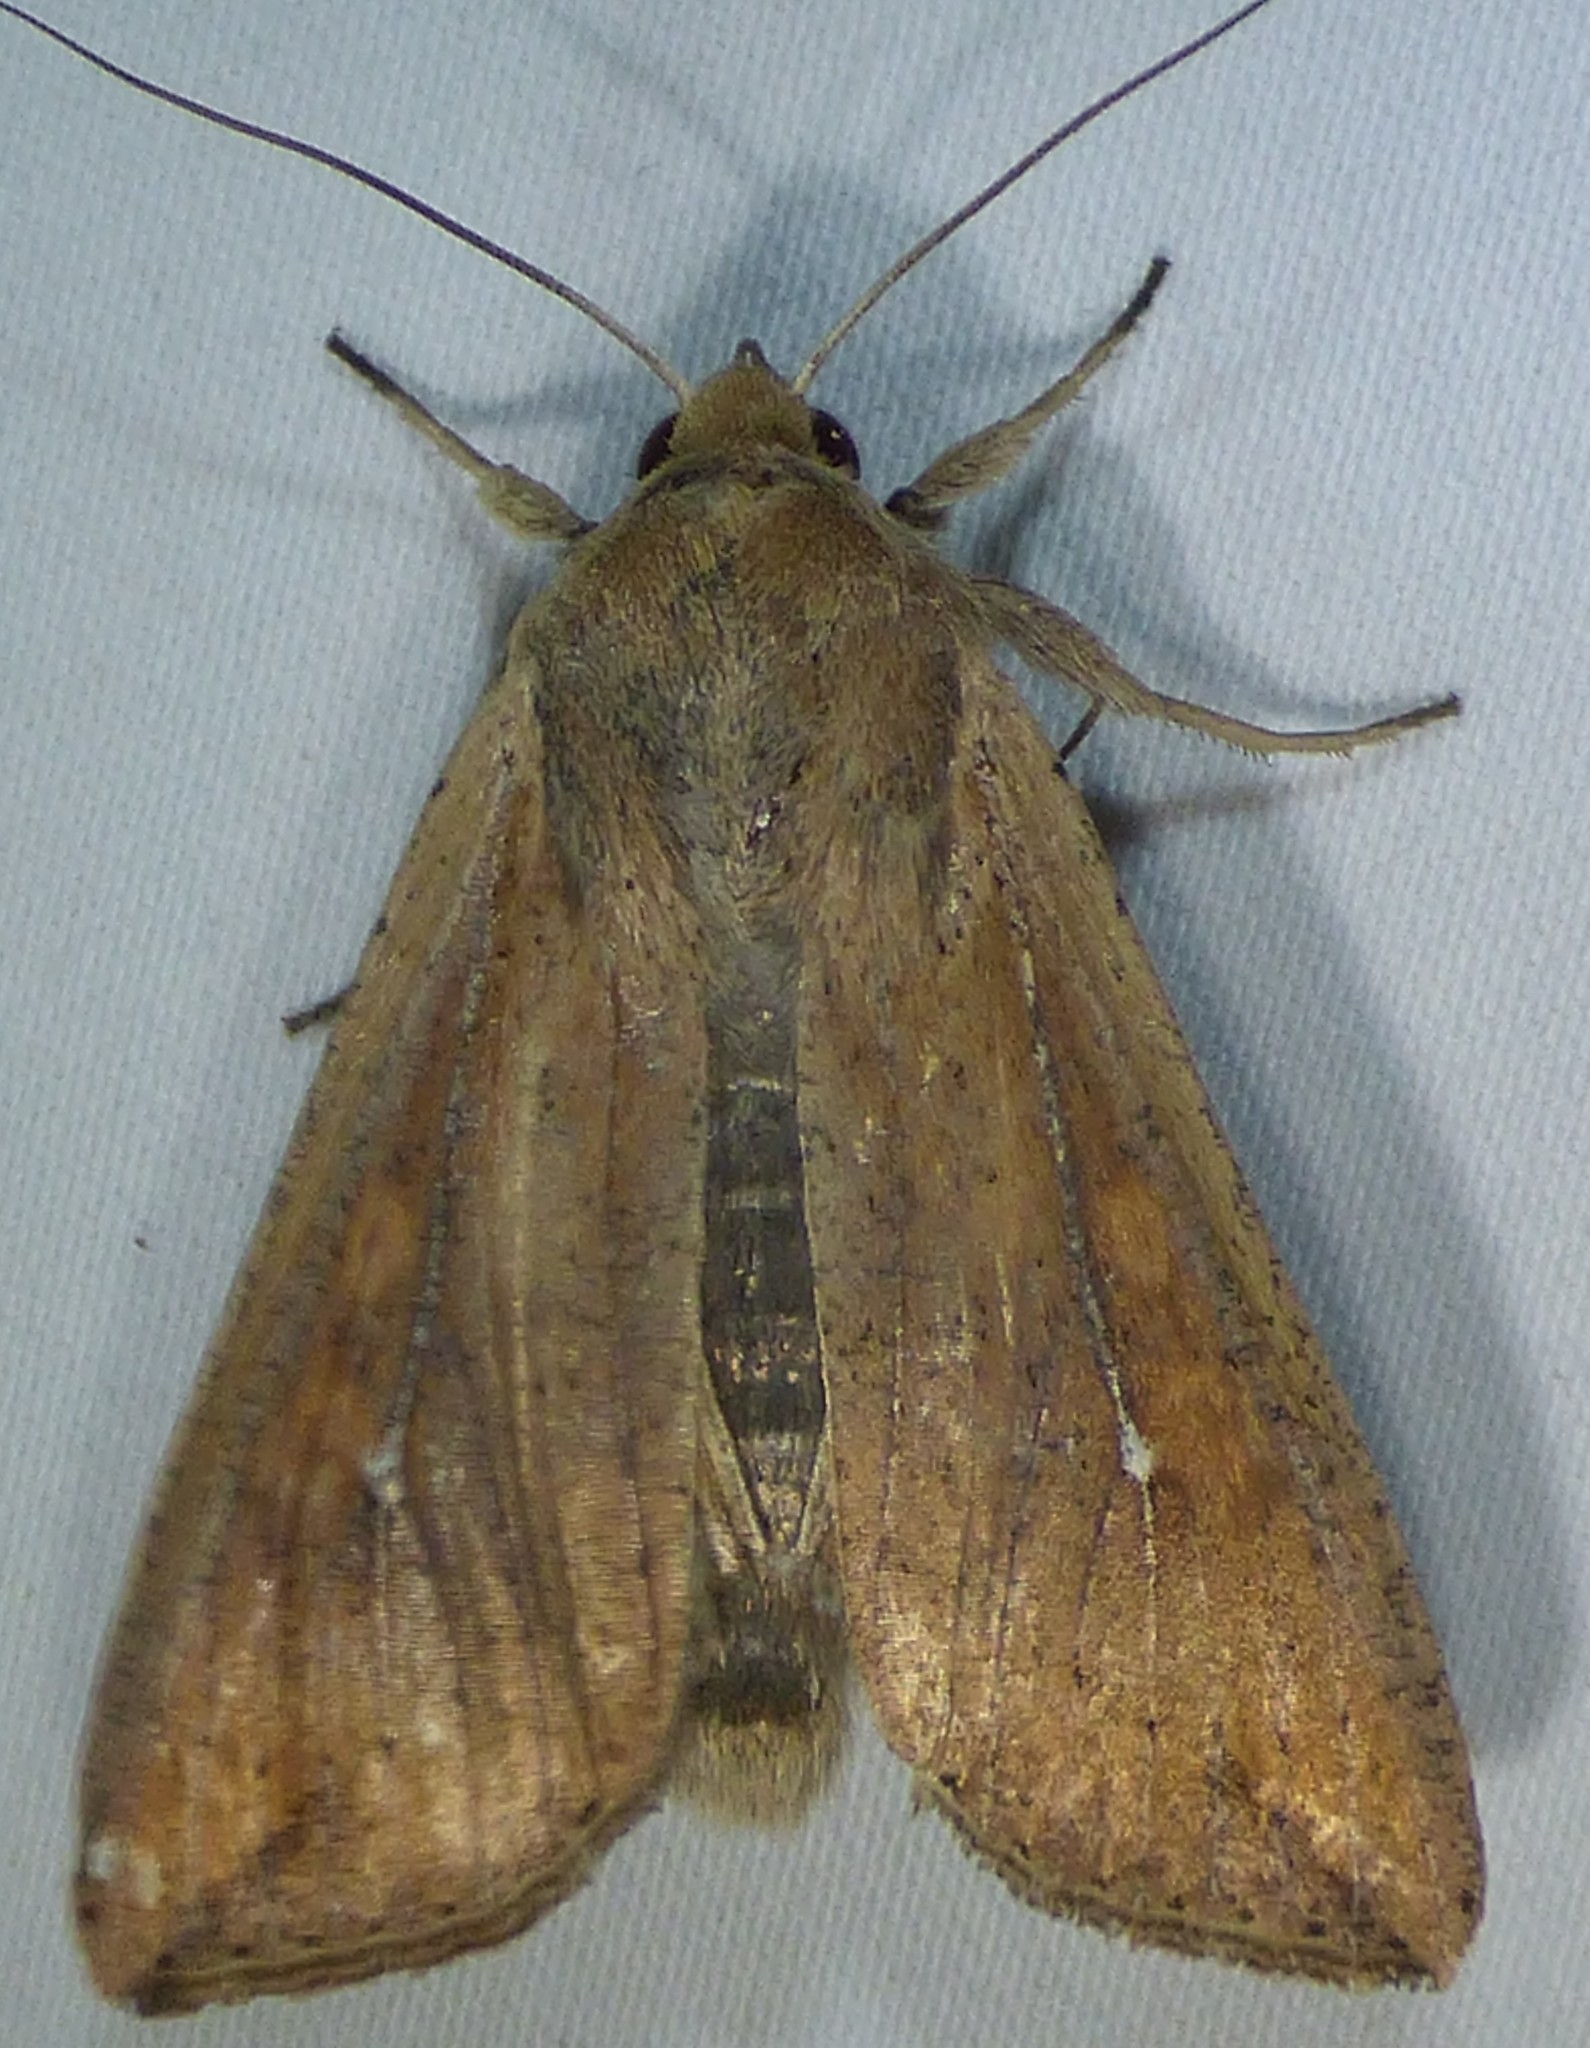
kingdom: Animalia
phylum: Arthropoda
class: Insecta
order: Lepidoptera
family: Noctuidae
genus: Mythimna
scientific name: Mythimna unipuncta
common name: White-speck
